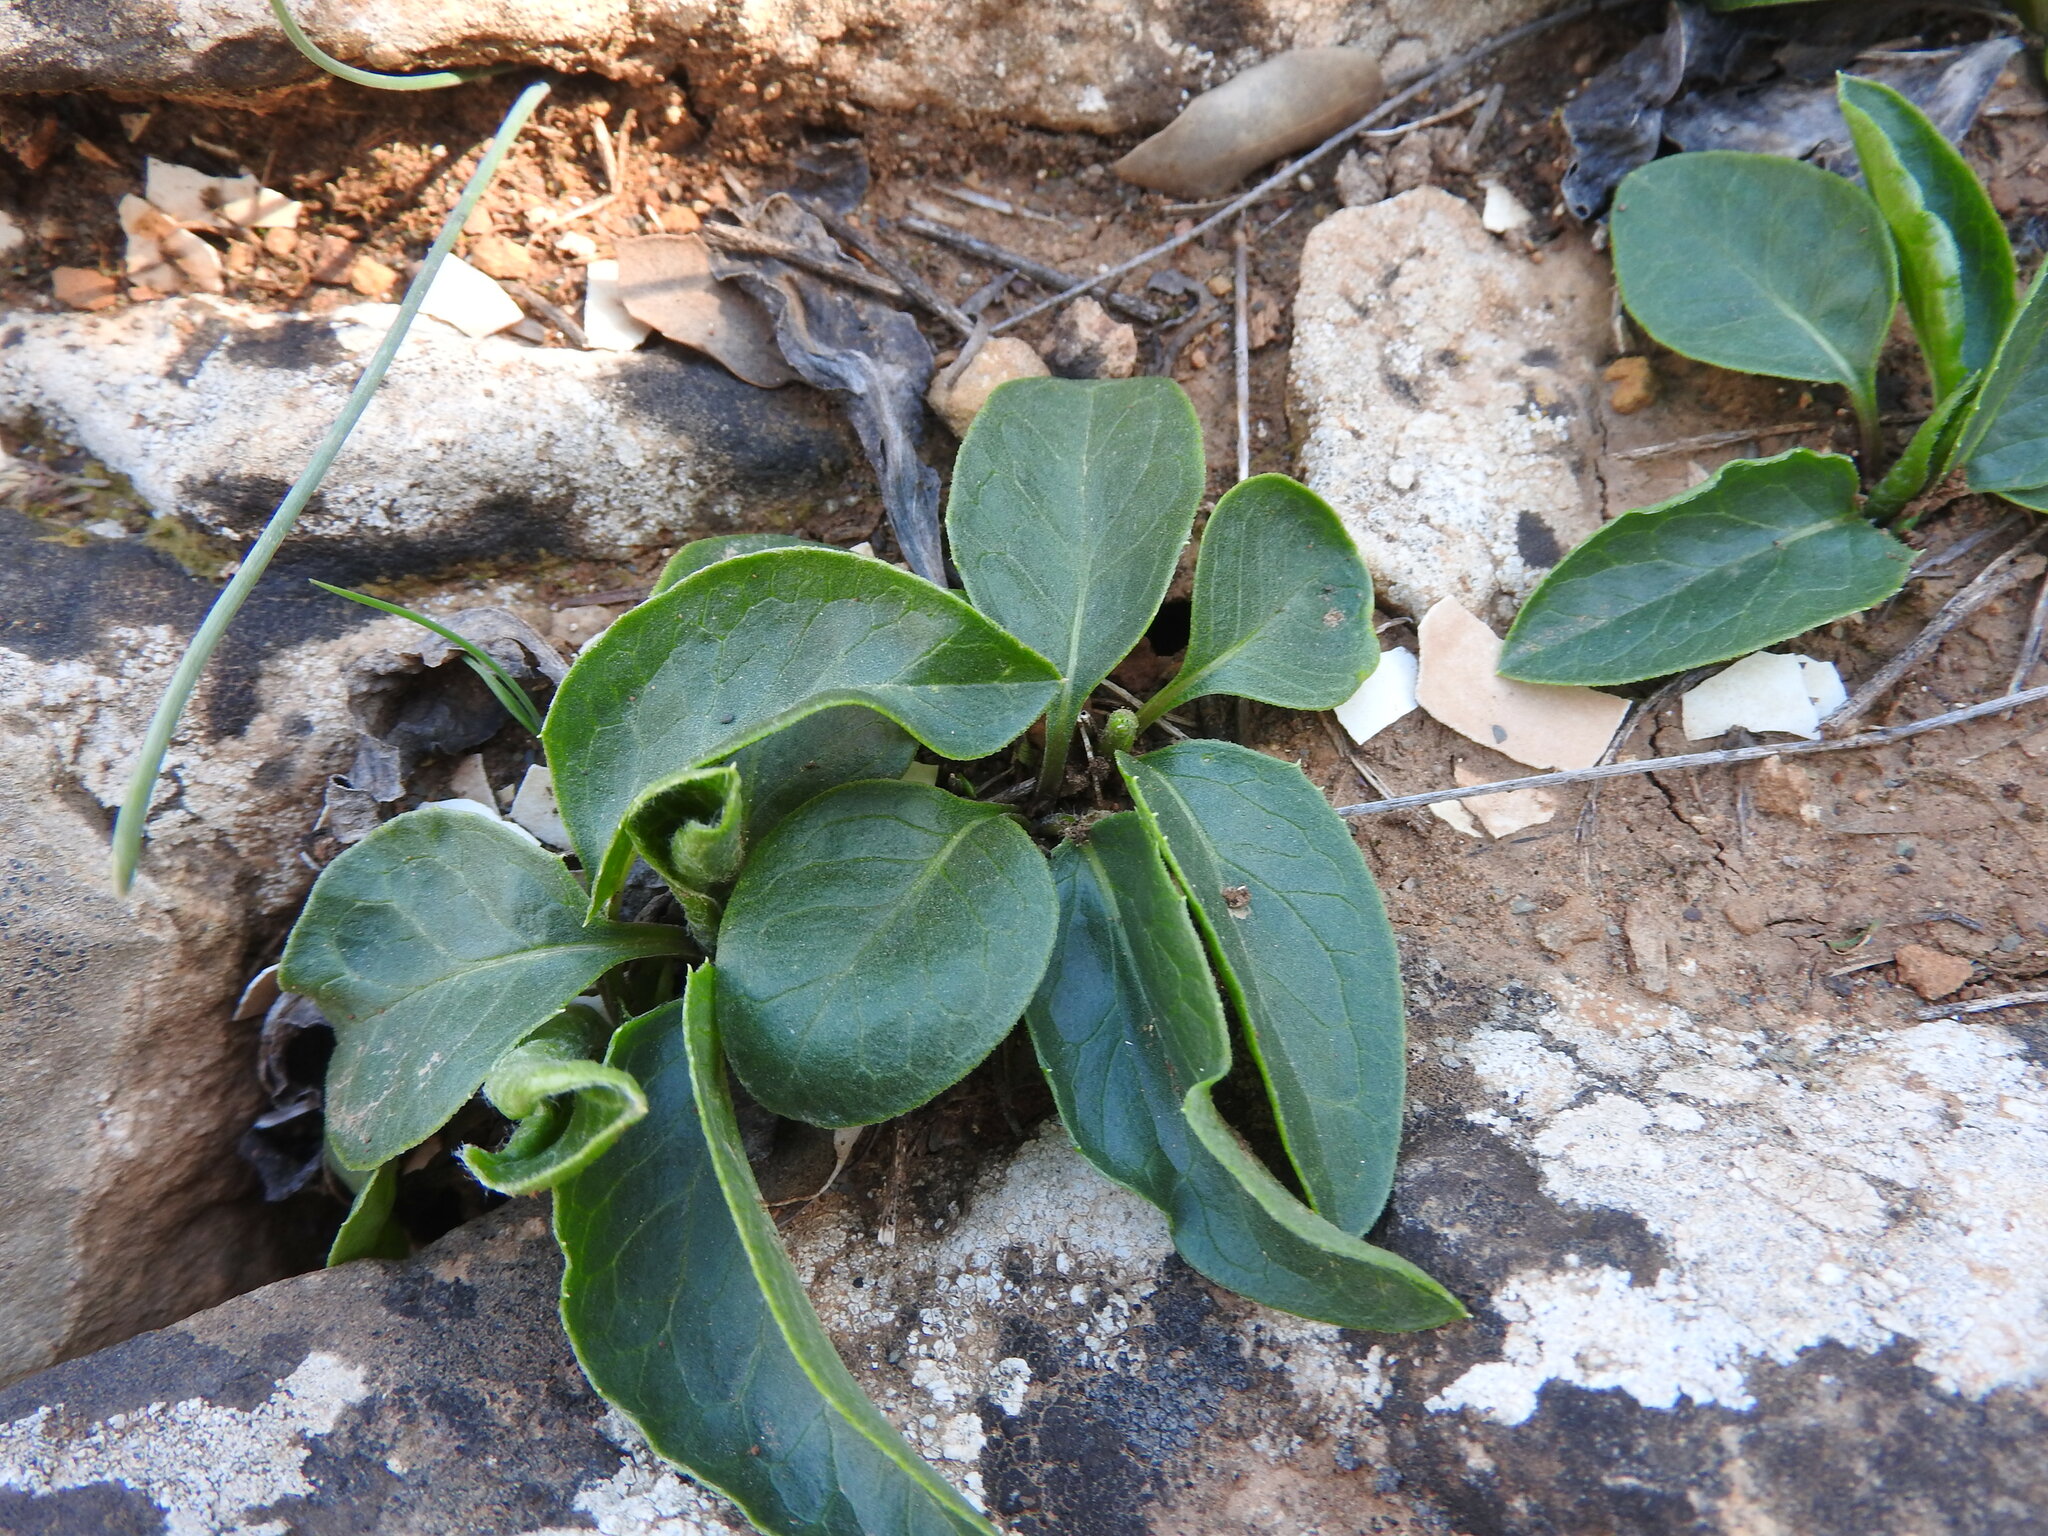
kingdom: Plantae
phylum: Tracheophyta
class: Magnoliopsida
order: Asterales
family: Asteraceae
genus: Klasea
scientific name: Klasea flavescens
